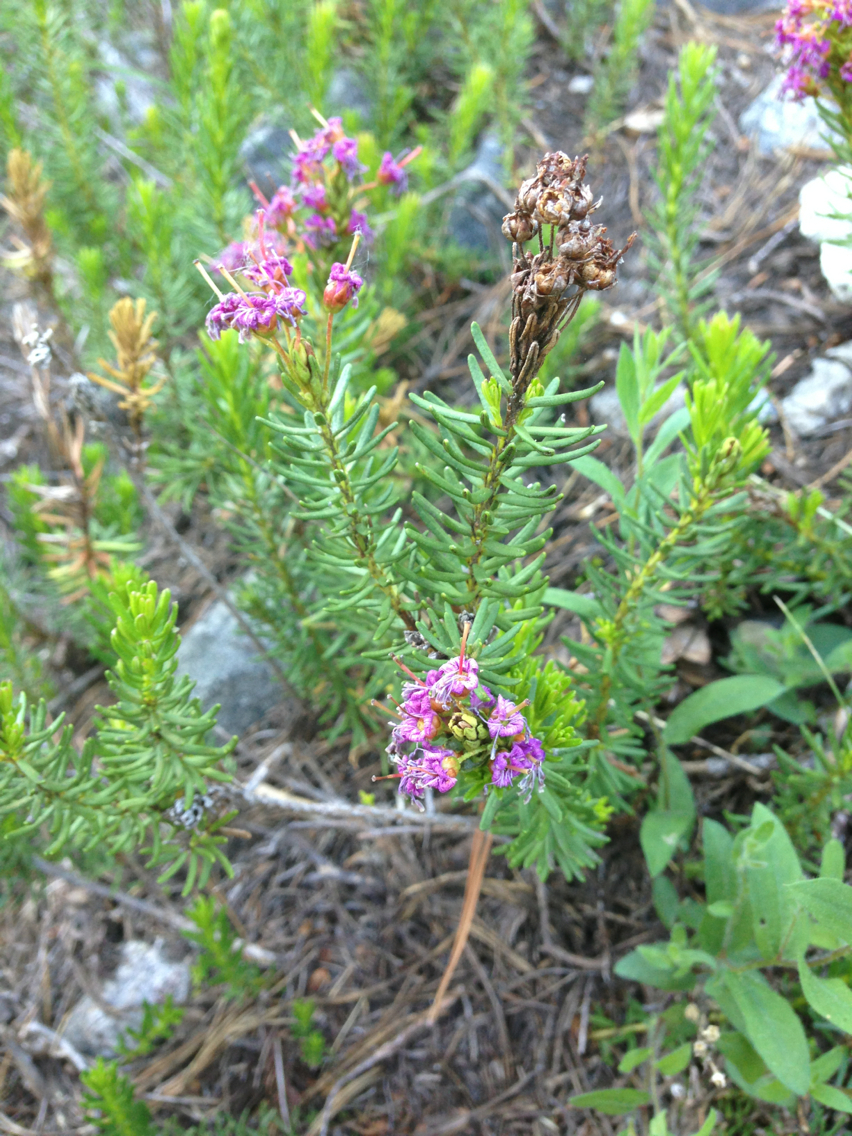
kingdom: Plantae
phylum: Tracheophyta
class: Magnoliopsida
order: Ericales
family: Ericaceae
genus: Phyllodoce
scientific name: Phyllodoce breweri
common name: Brewer's mountain-heather
